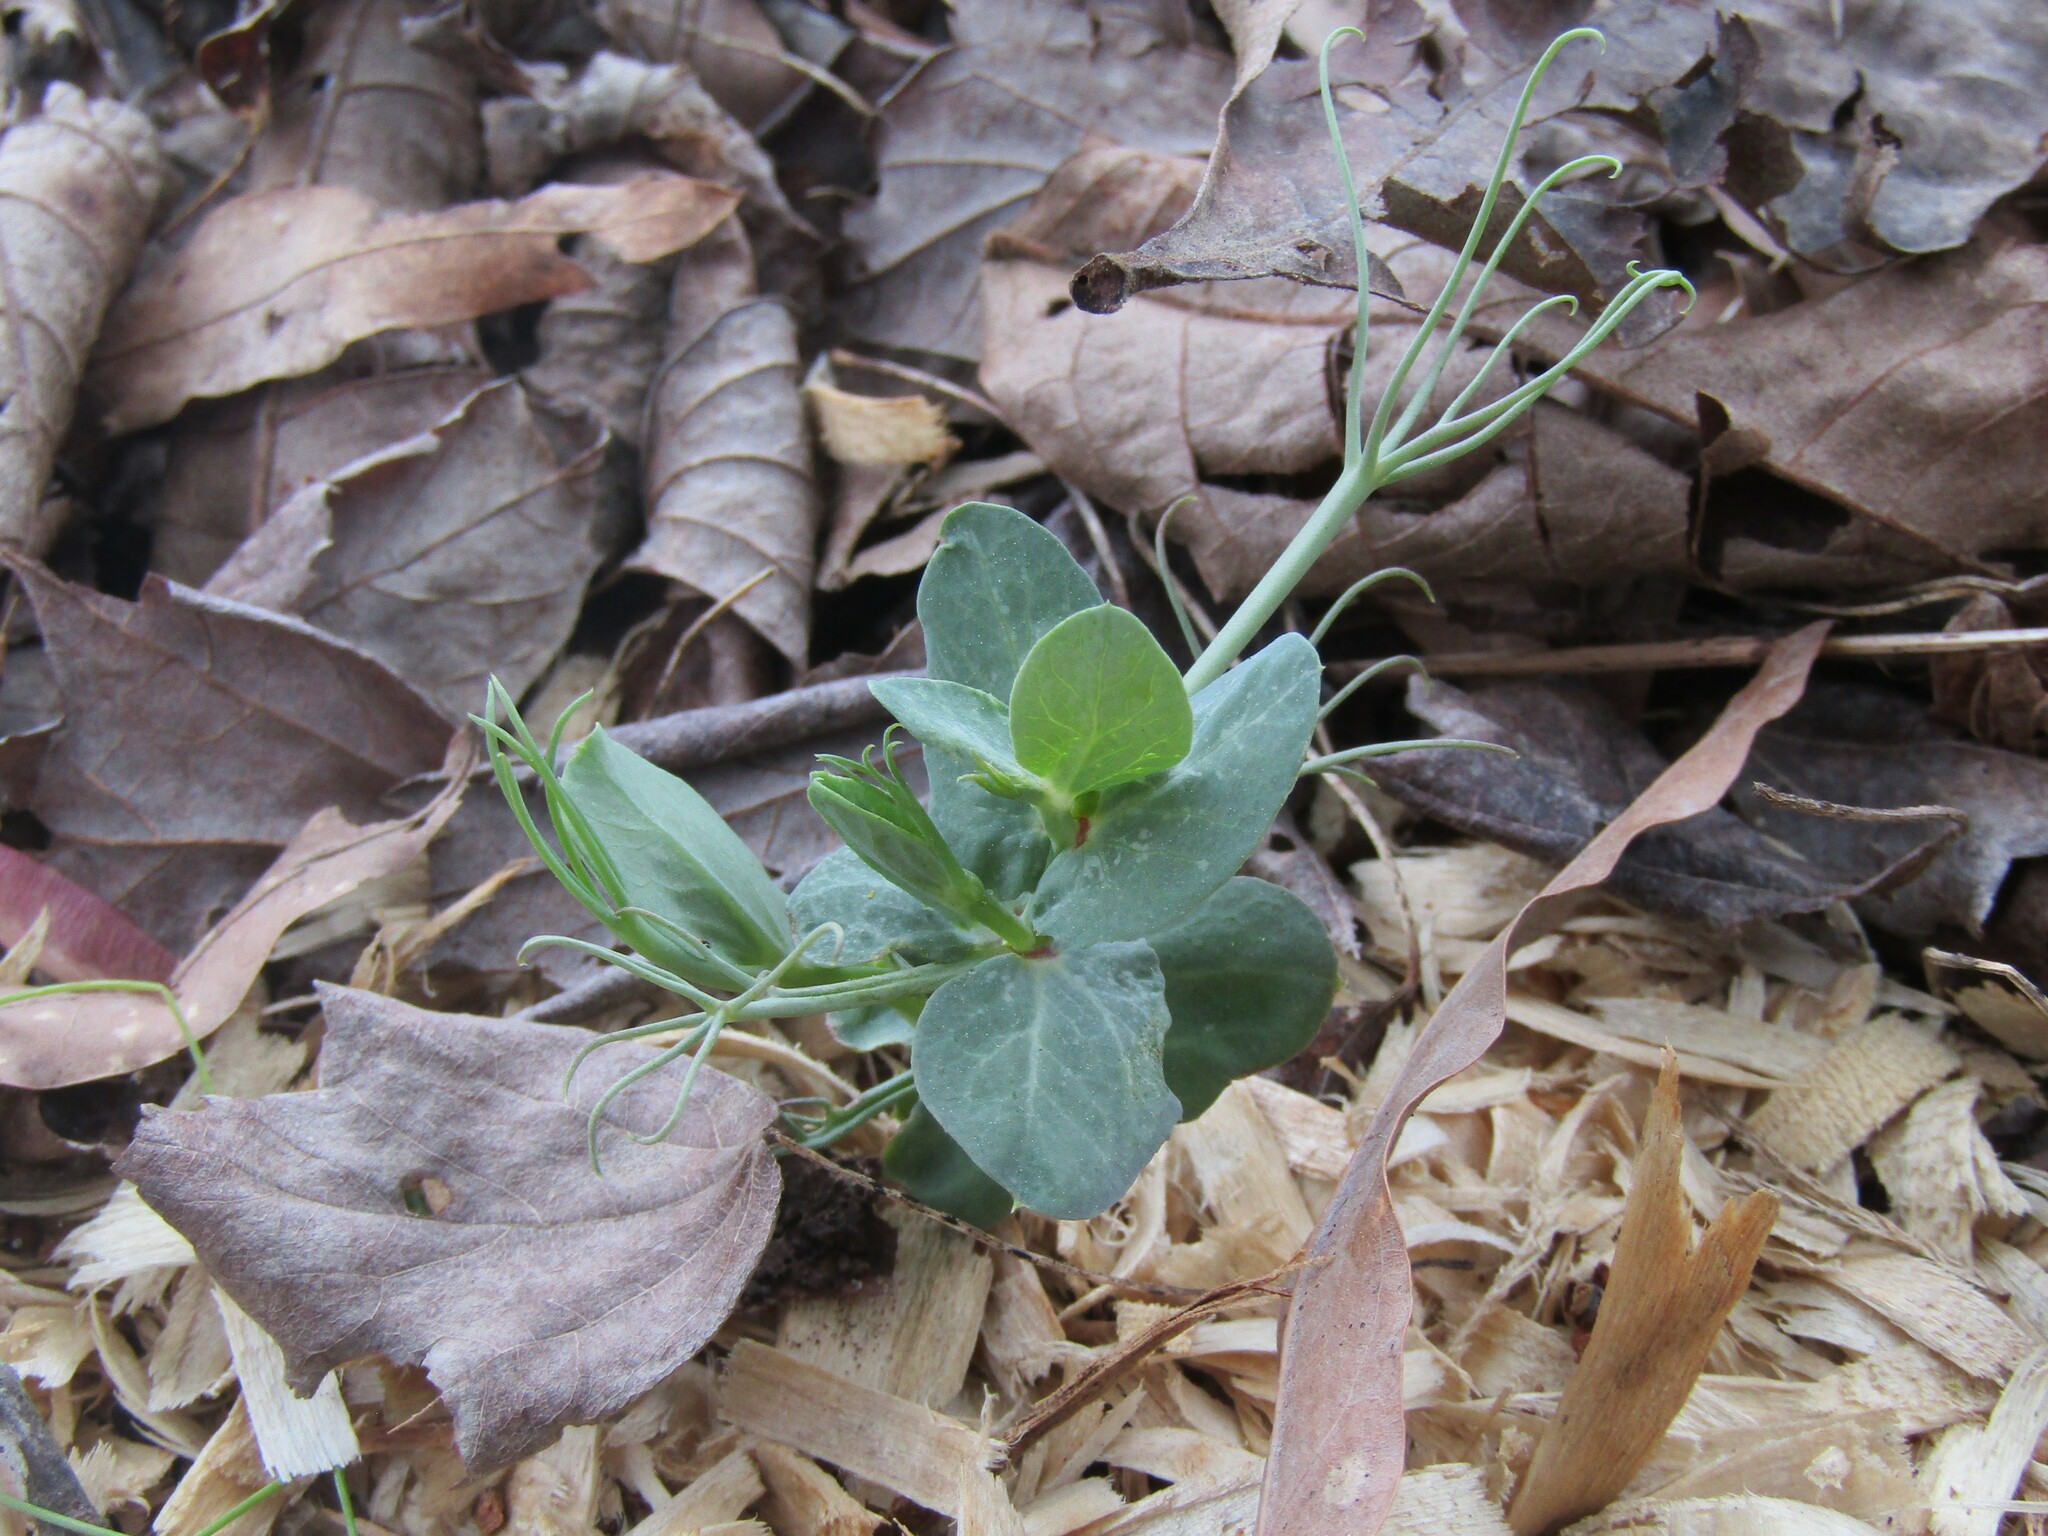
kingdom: Plantae
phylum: Tracheophyta
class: Magnoliopsida
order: Fabales
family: Fabaceae
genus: Lathyrus
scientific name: Lathyrus oleraceus
